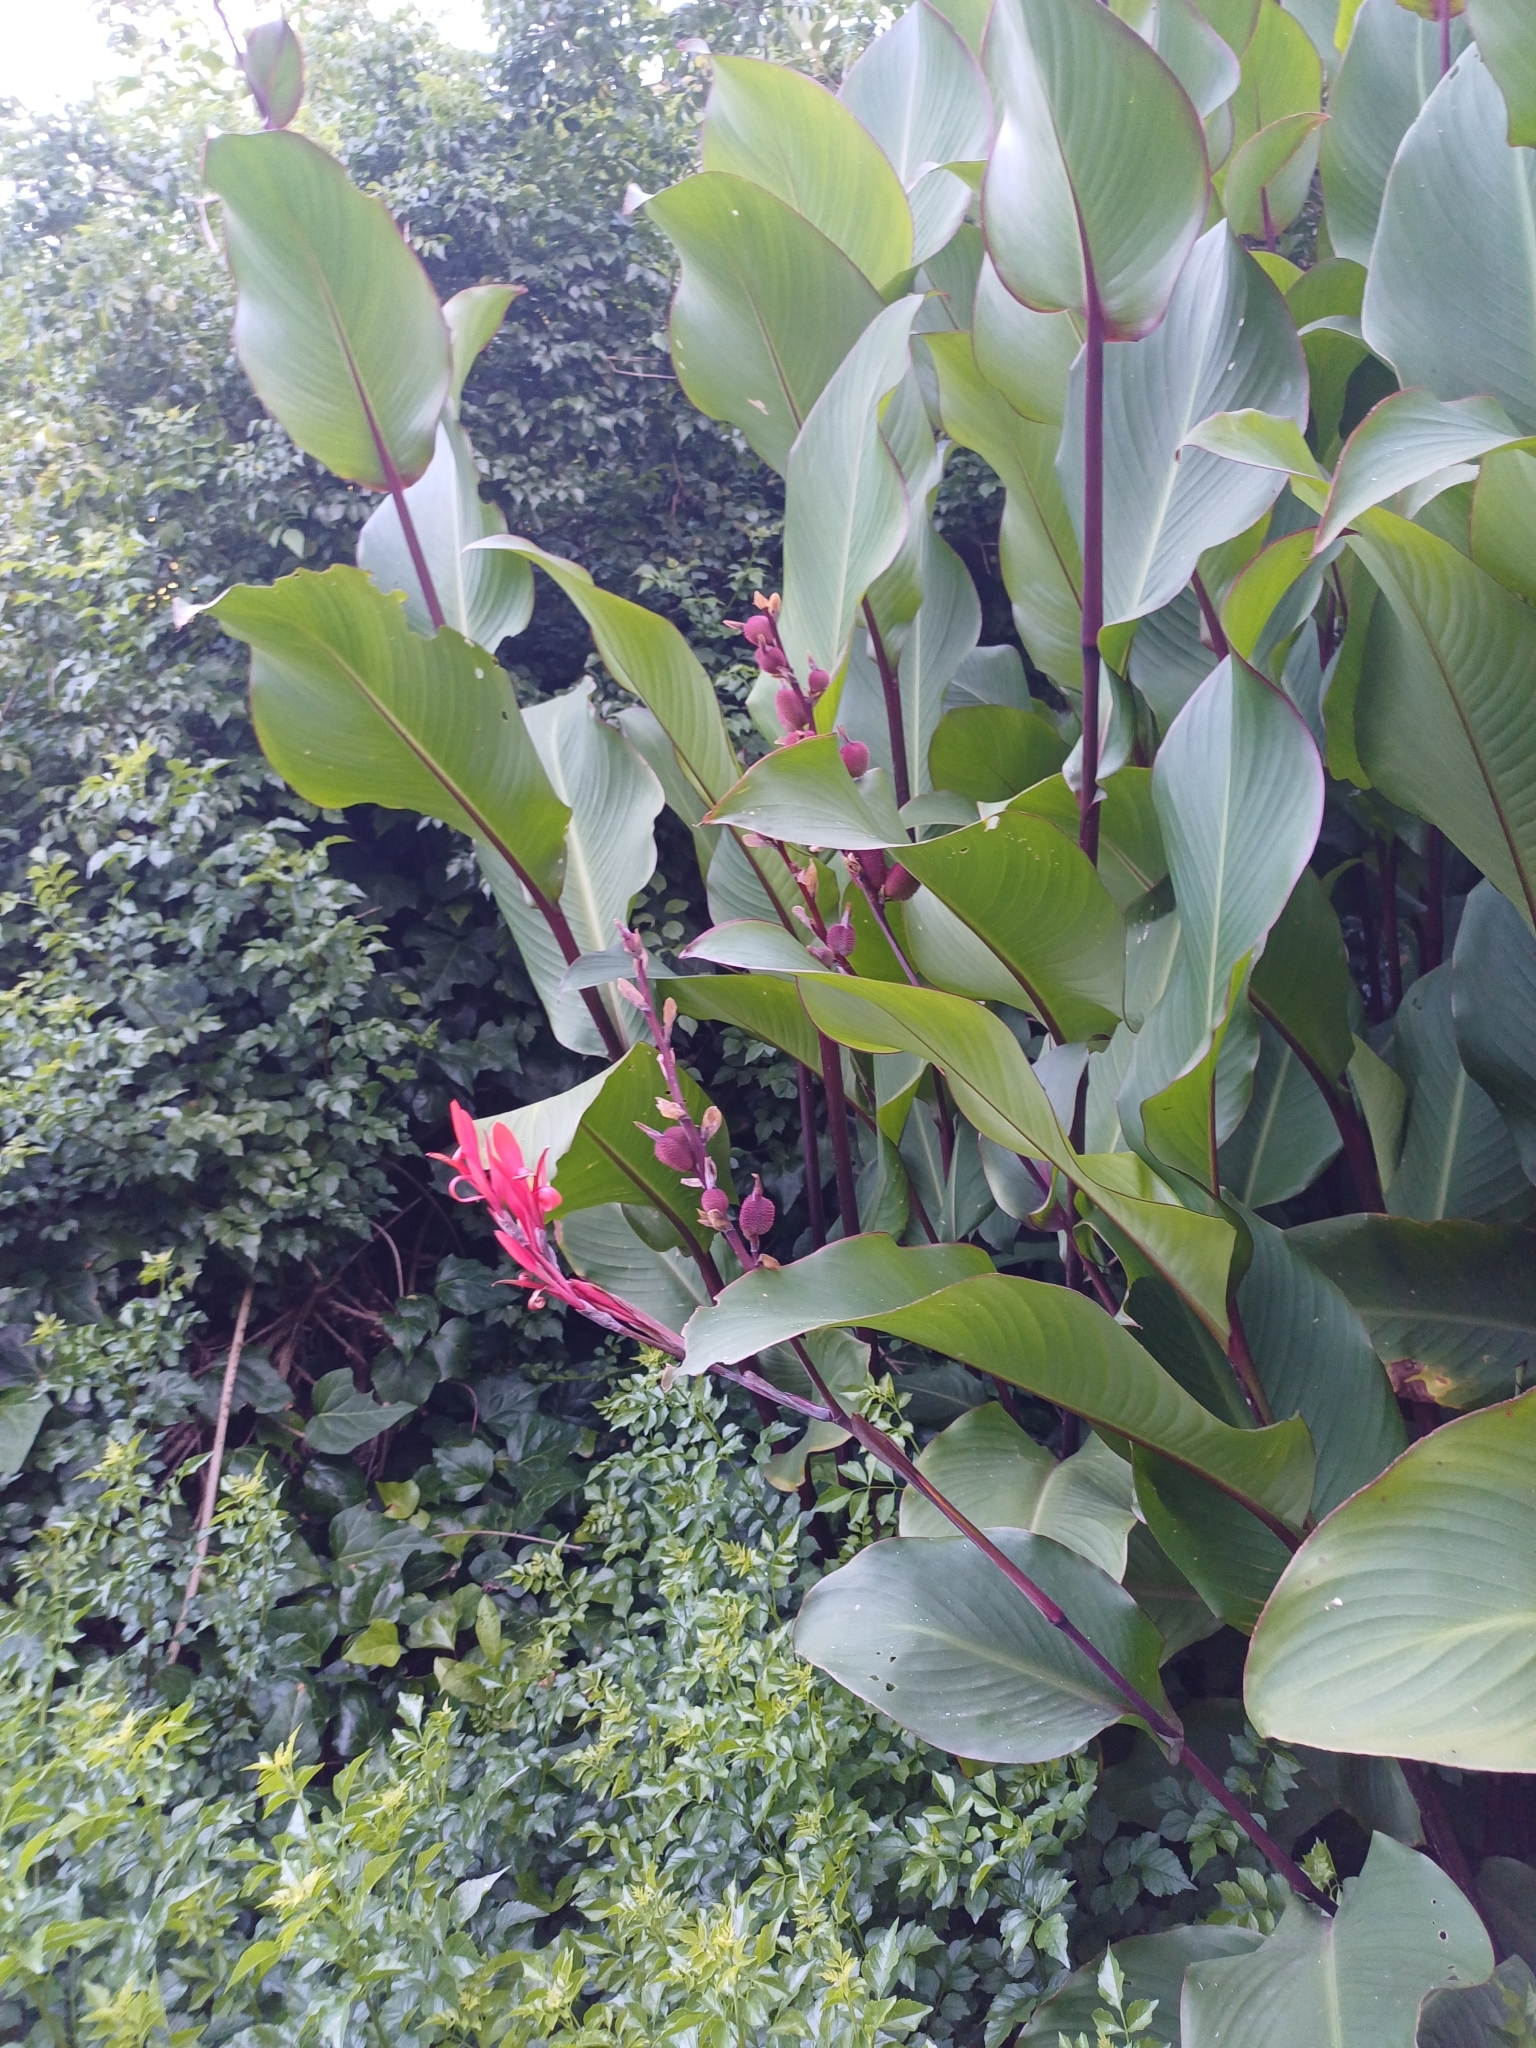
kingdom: Plantae
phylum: Tracheophyta
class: Liliopsida
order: Zingiberales
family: Cannaceae
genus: Canna
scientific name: Canna indica
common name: Indian shot
